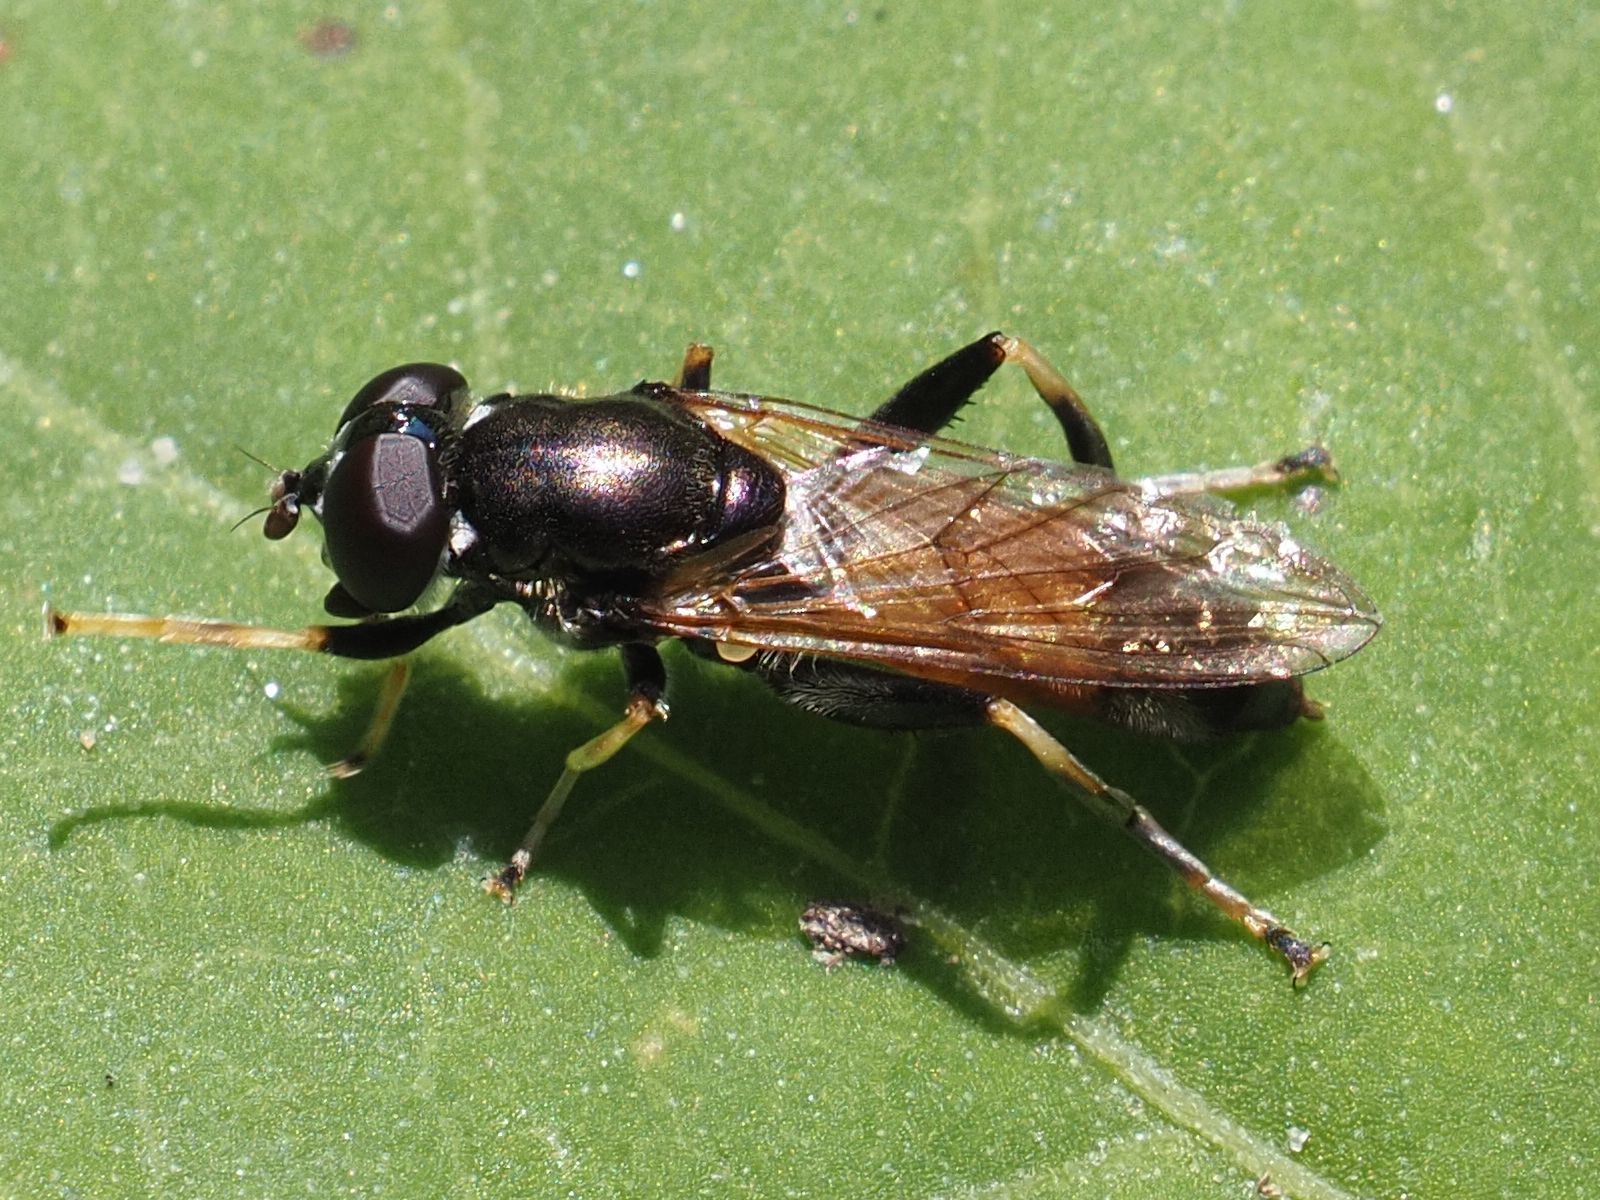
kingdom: Animalia
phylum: Arthropoda
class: Insecta
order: Diptera
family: Syrphidae
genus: Xylota
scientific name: Xylota segnis
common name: Brown-toed forest fly
